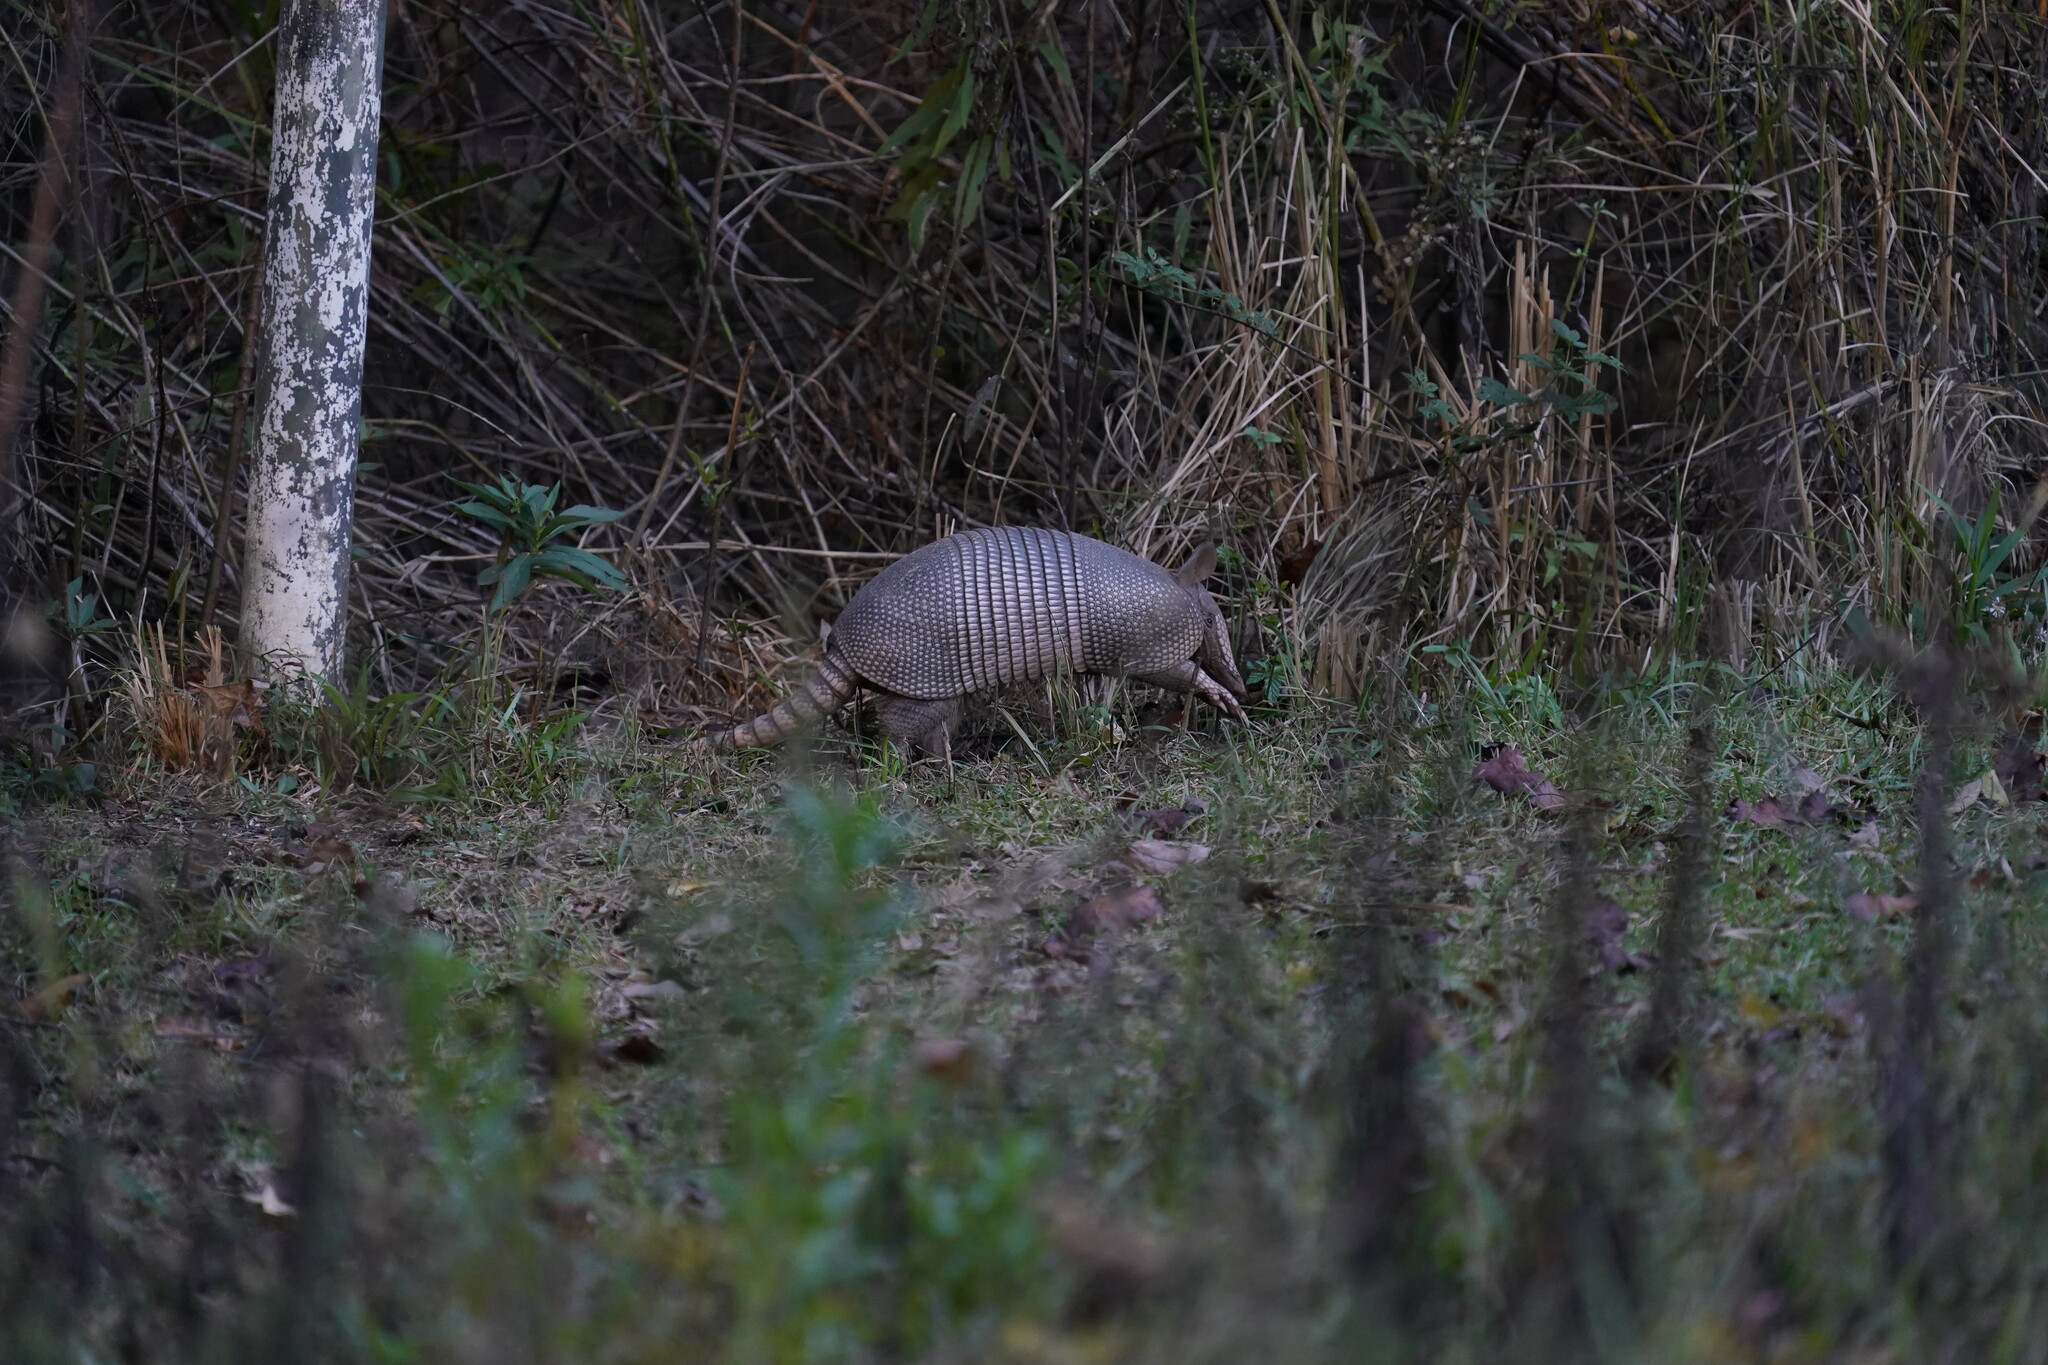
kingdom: Animalia
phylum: Chordata
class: Mammalia
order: Cingulata
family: Dasypodidae
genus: Dasypus
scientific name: Dasypus novemcinctus
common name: Nine-banded armadillo
